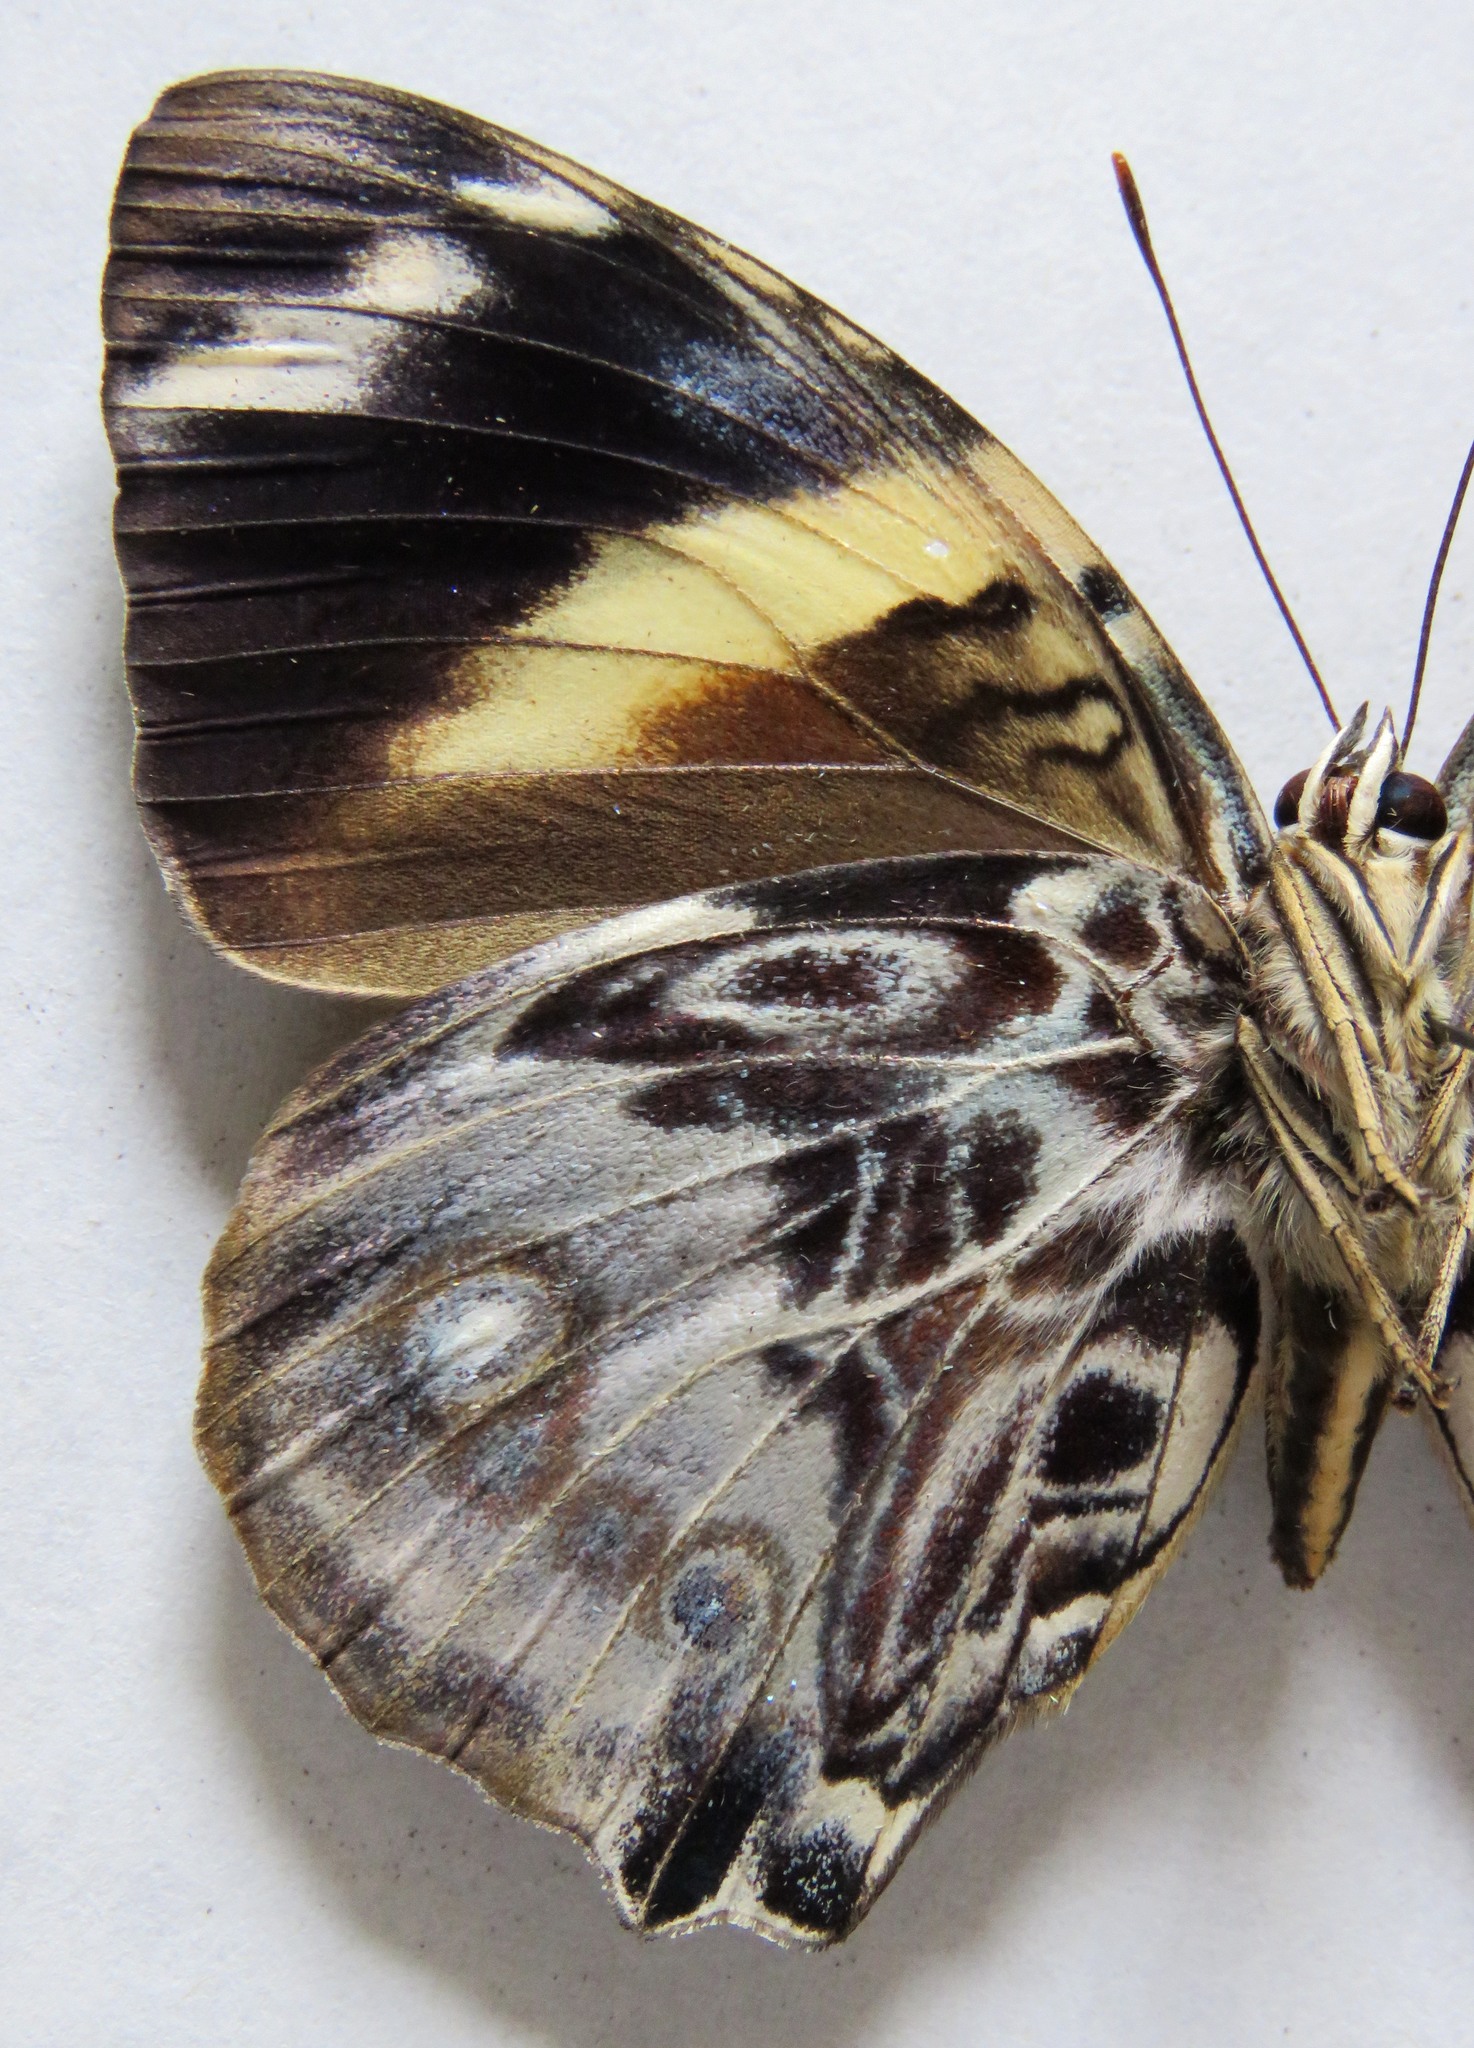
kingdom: Animalia
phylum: Arthropoda
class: Insecta
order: Lepidoptera
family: Nymphalidae
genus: Smyrna
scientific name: Smyrna blomfildia
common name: Blomfild's beauty
